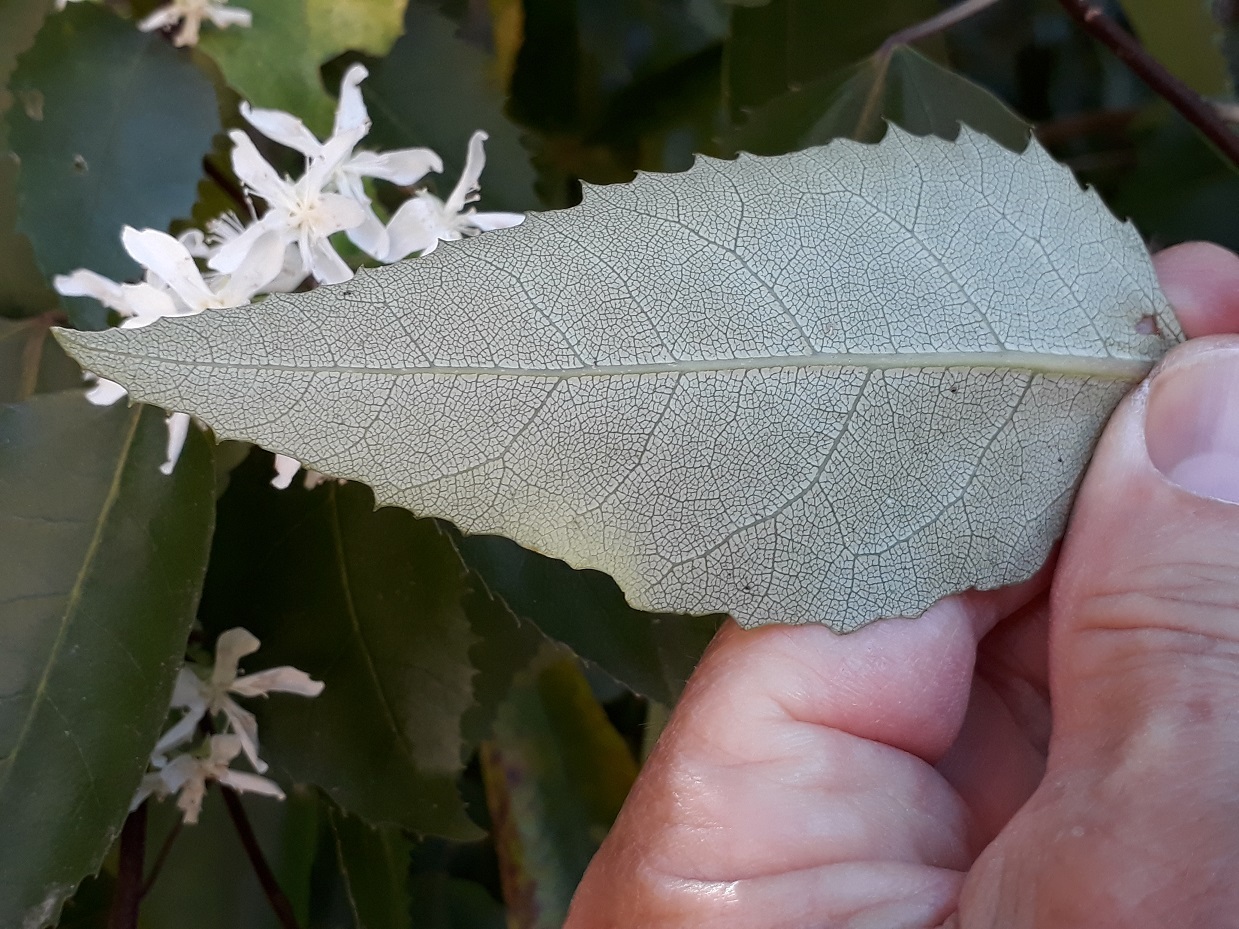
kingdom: Plantae
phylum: Tracheophyta
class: Magnoliopsida
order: Malvales
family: Malvaceae
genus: Hoheria
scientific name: Hoheria populnea
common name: Lacebark
